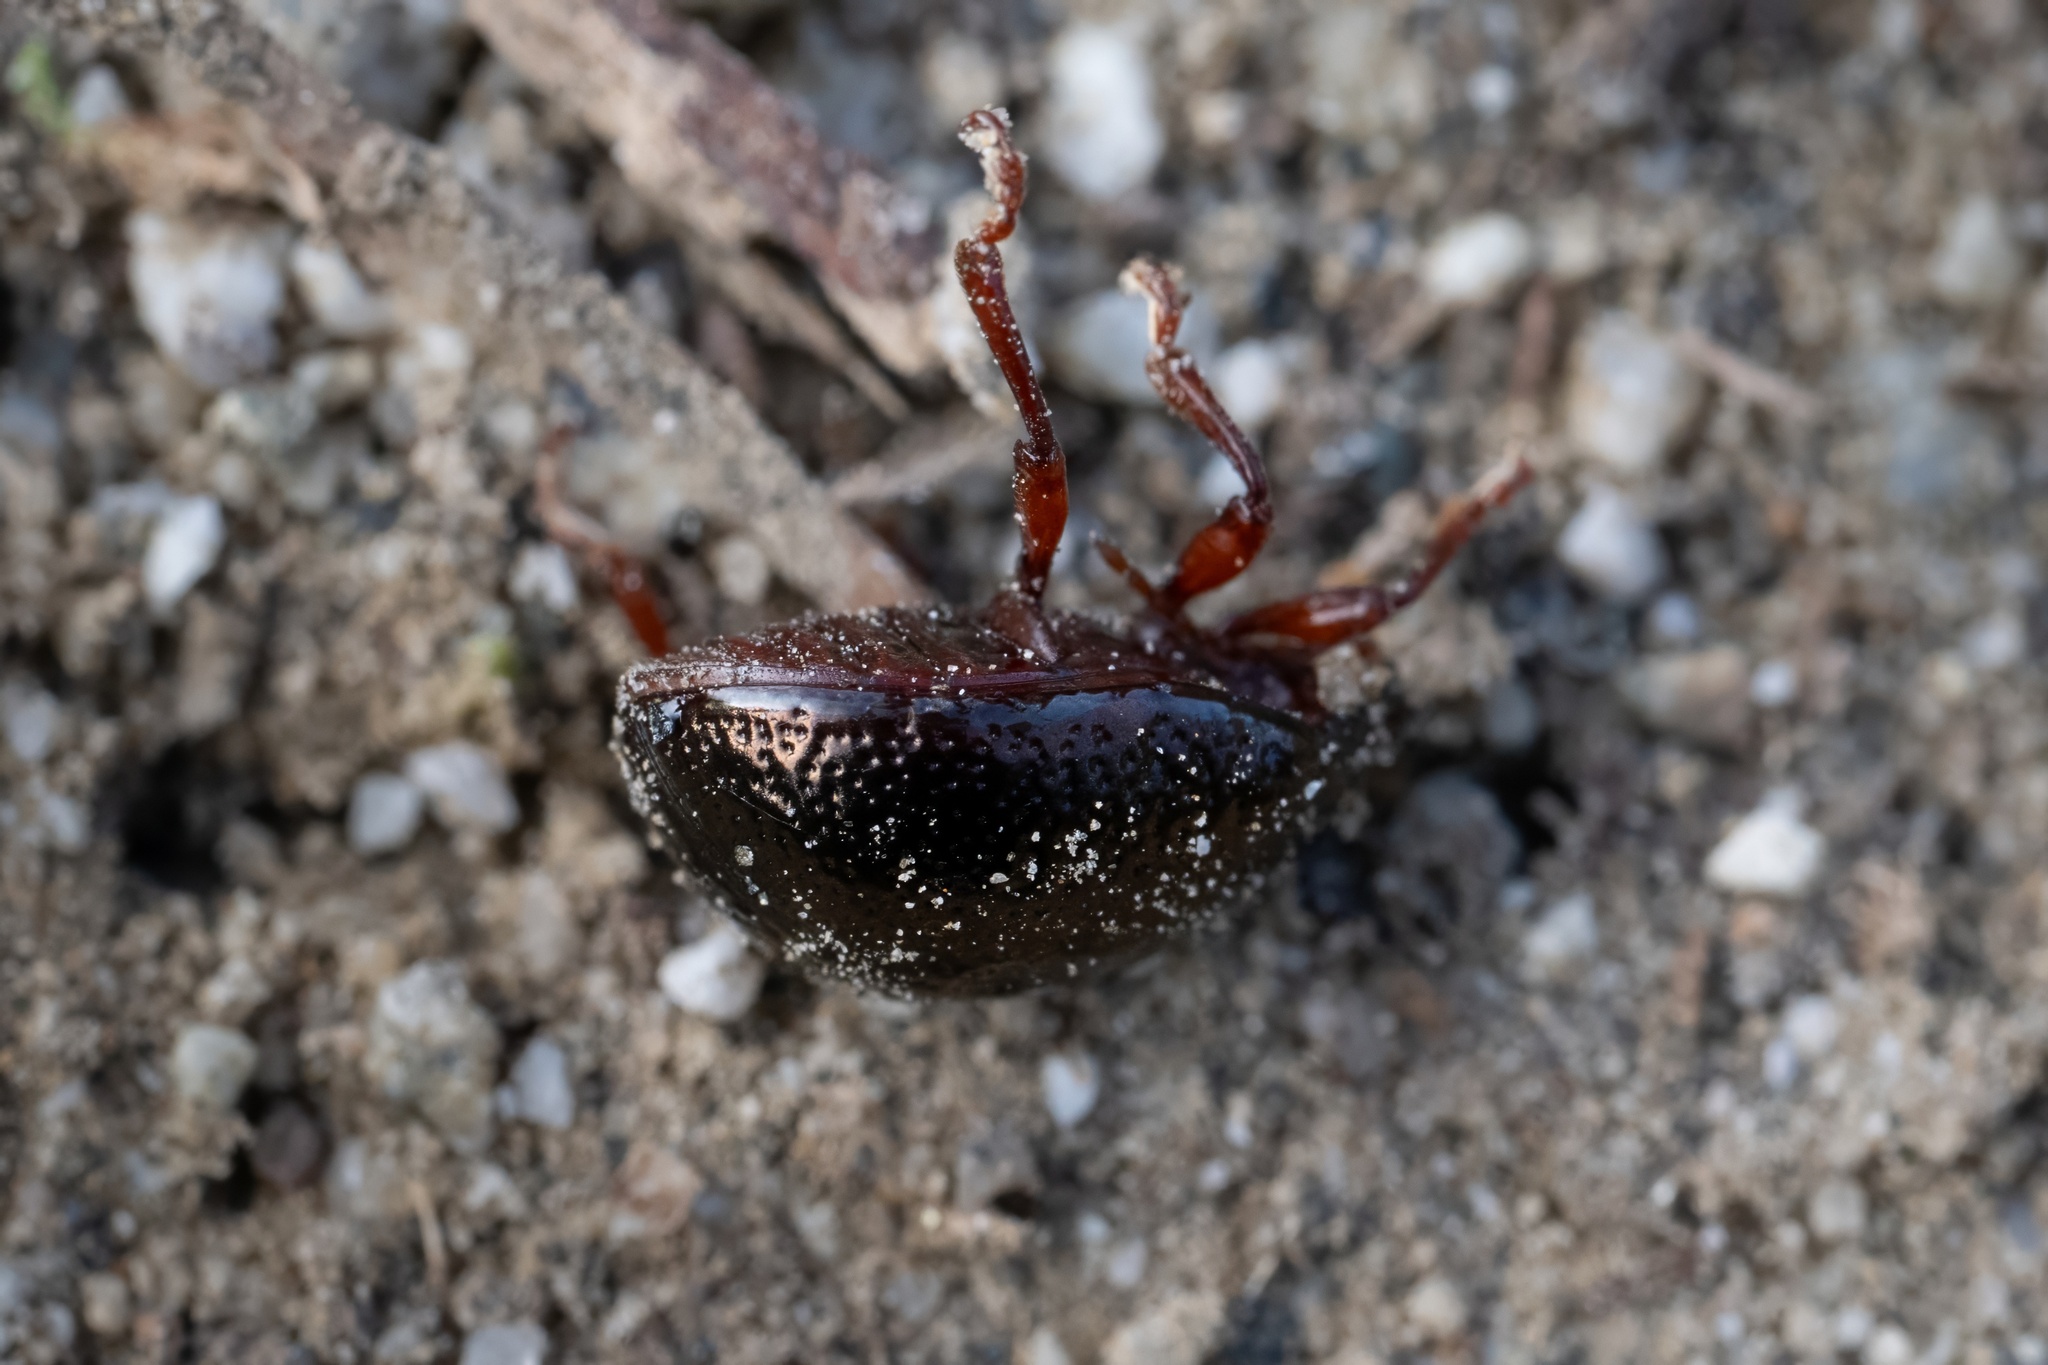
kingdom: Animalia
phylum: Arthropoda
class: Insecta
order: Coleoptera
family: Chrysomelidae
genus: Chrysolina
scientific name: Chrysolina bankii
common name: Leaf beetle
